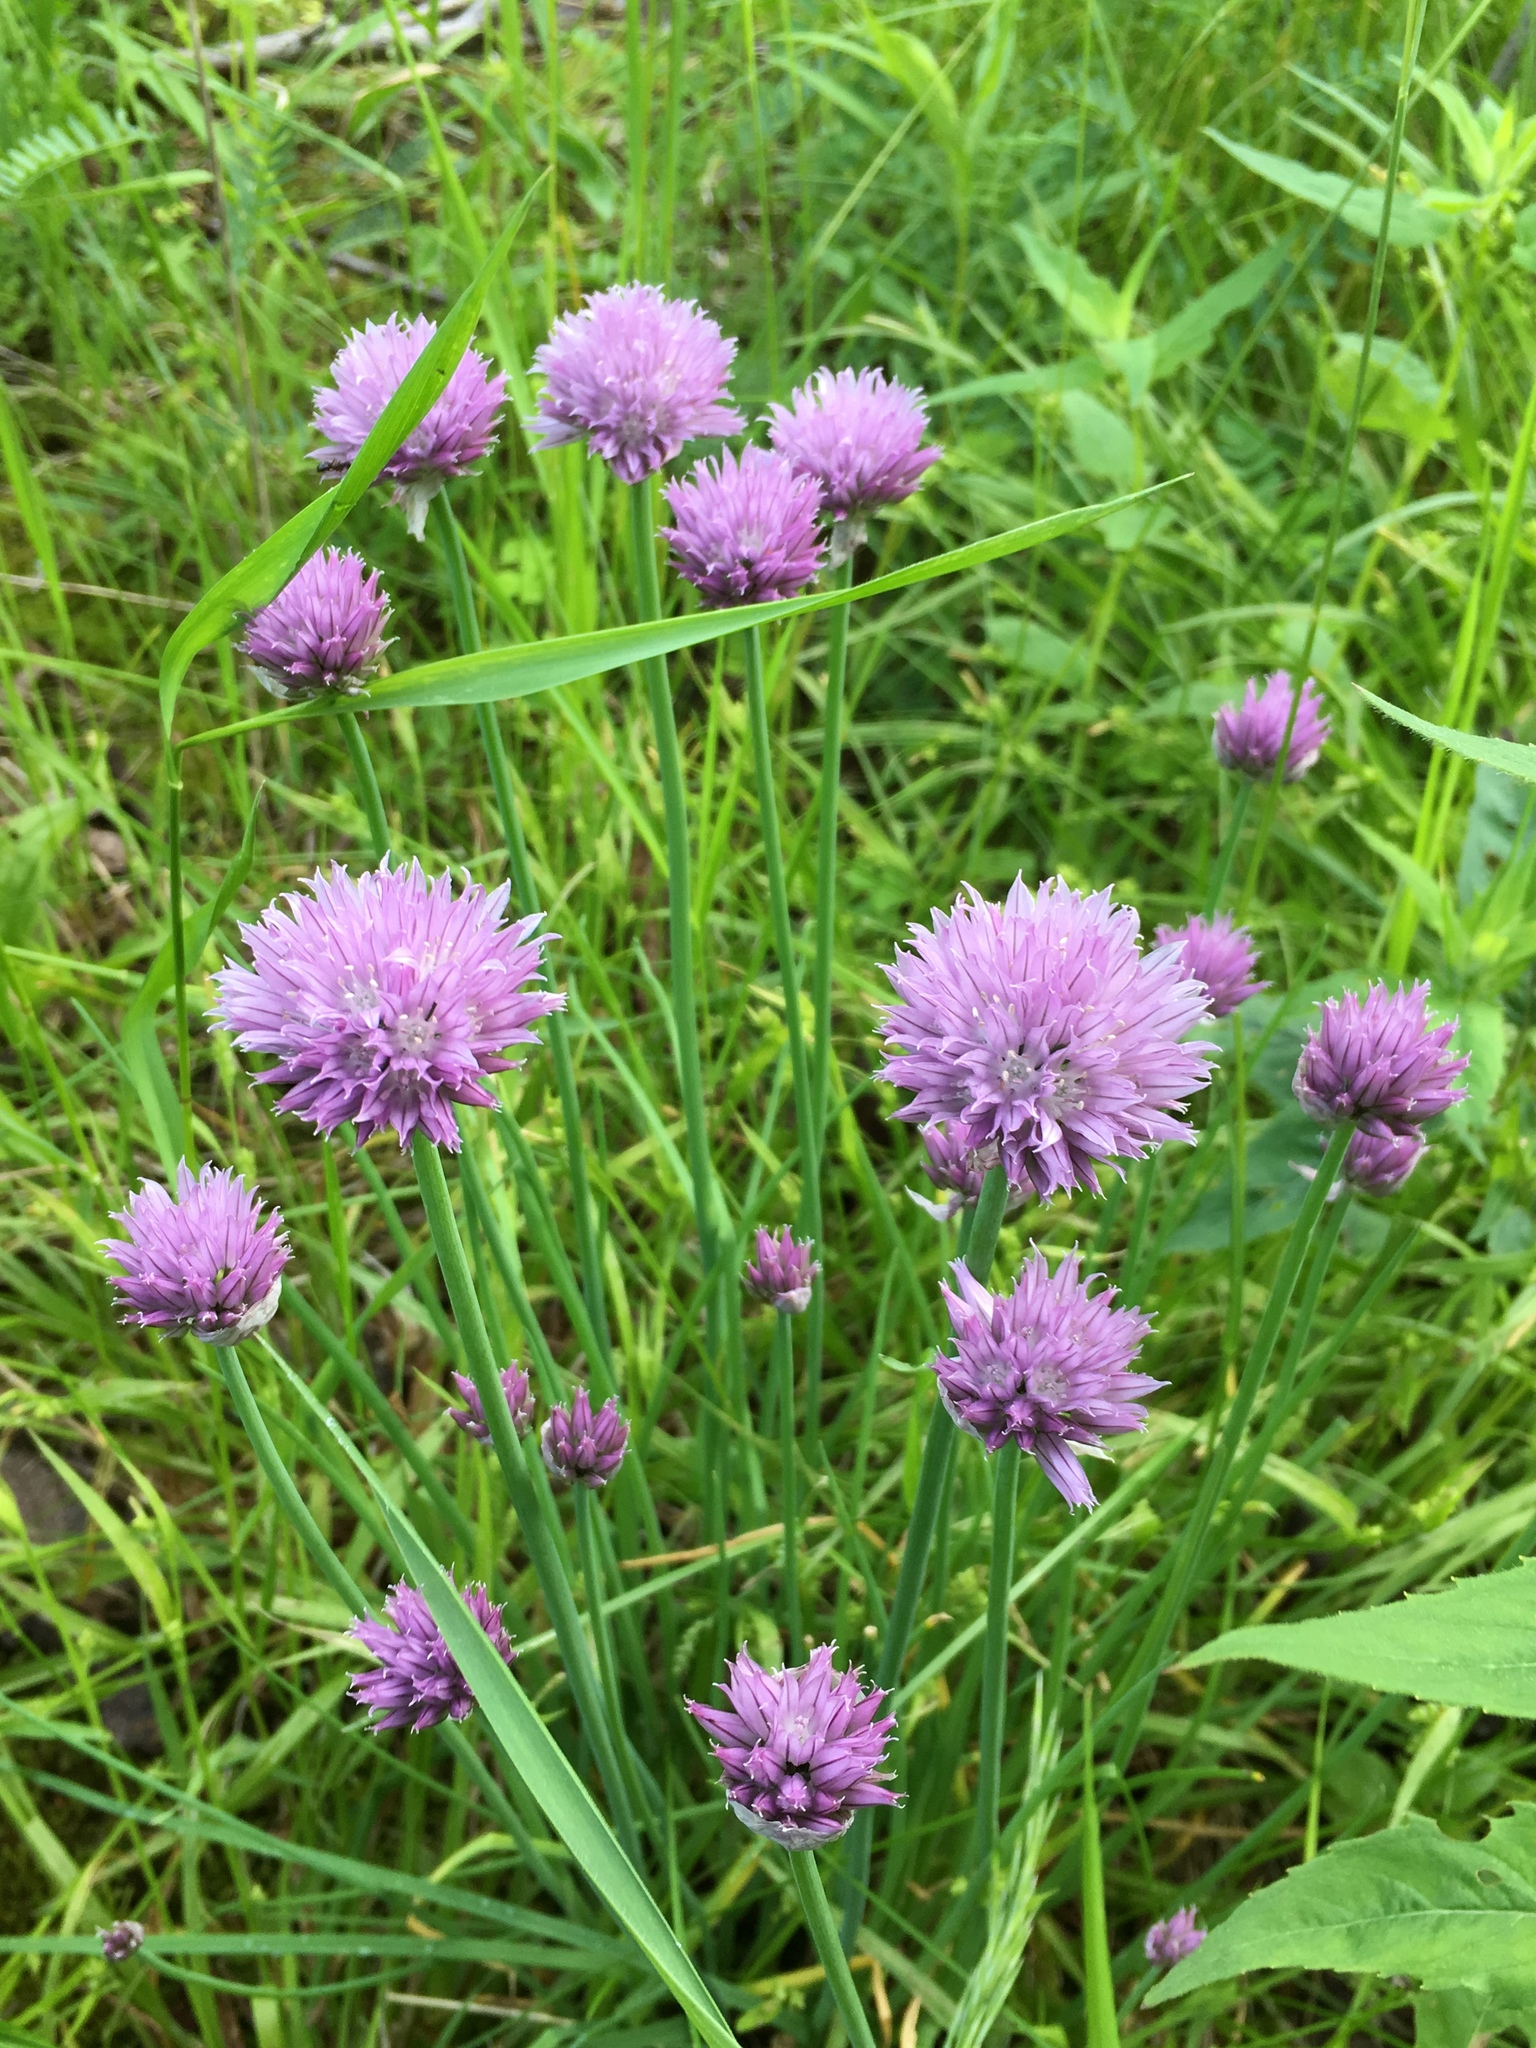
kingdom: Plantae
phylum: Tracheophyta
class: Liliopsida
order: Asparagales
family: Amaryllidaceae
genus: Allium
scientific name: Allium schoenoprasum
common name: Chives
